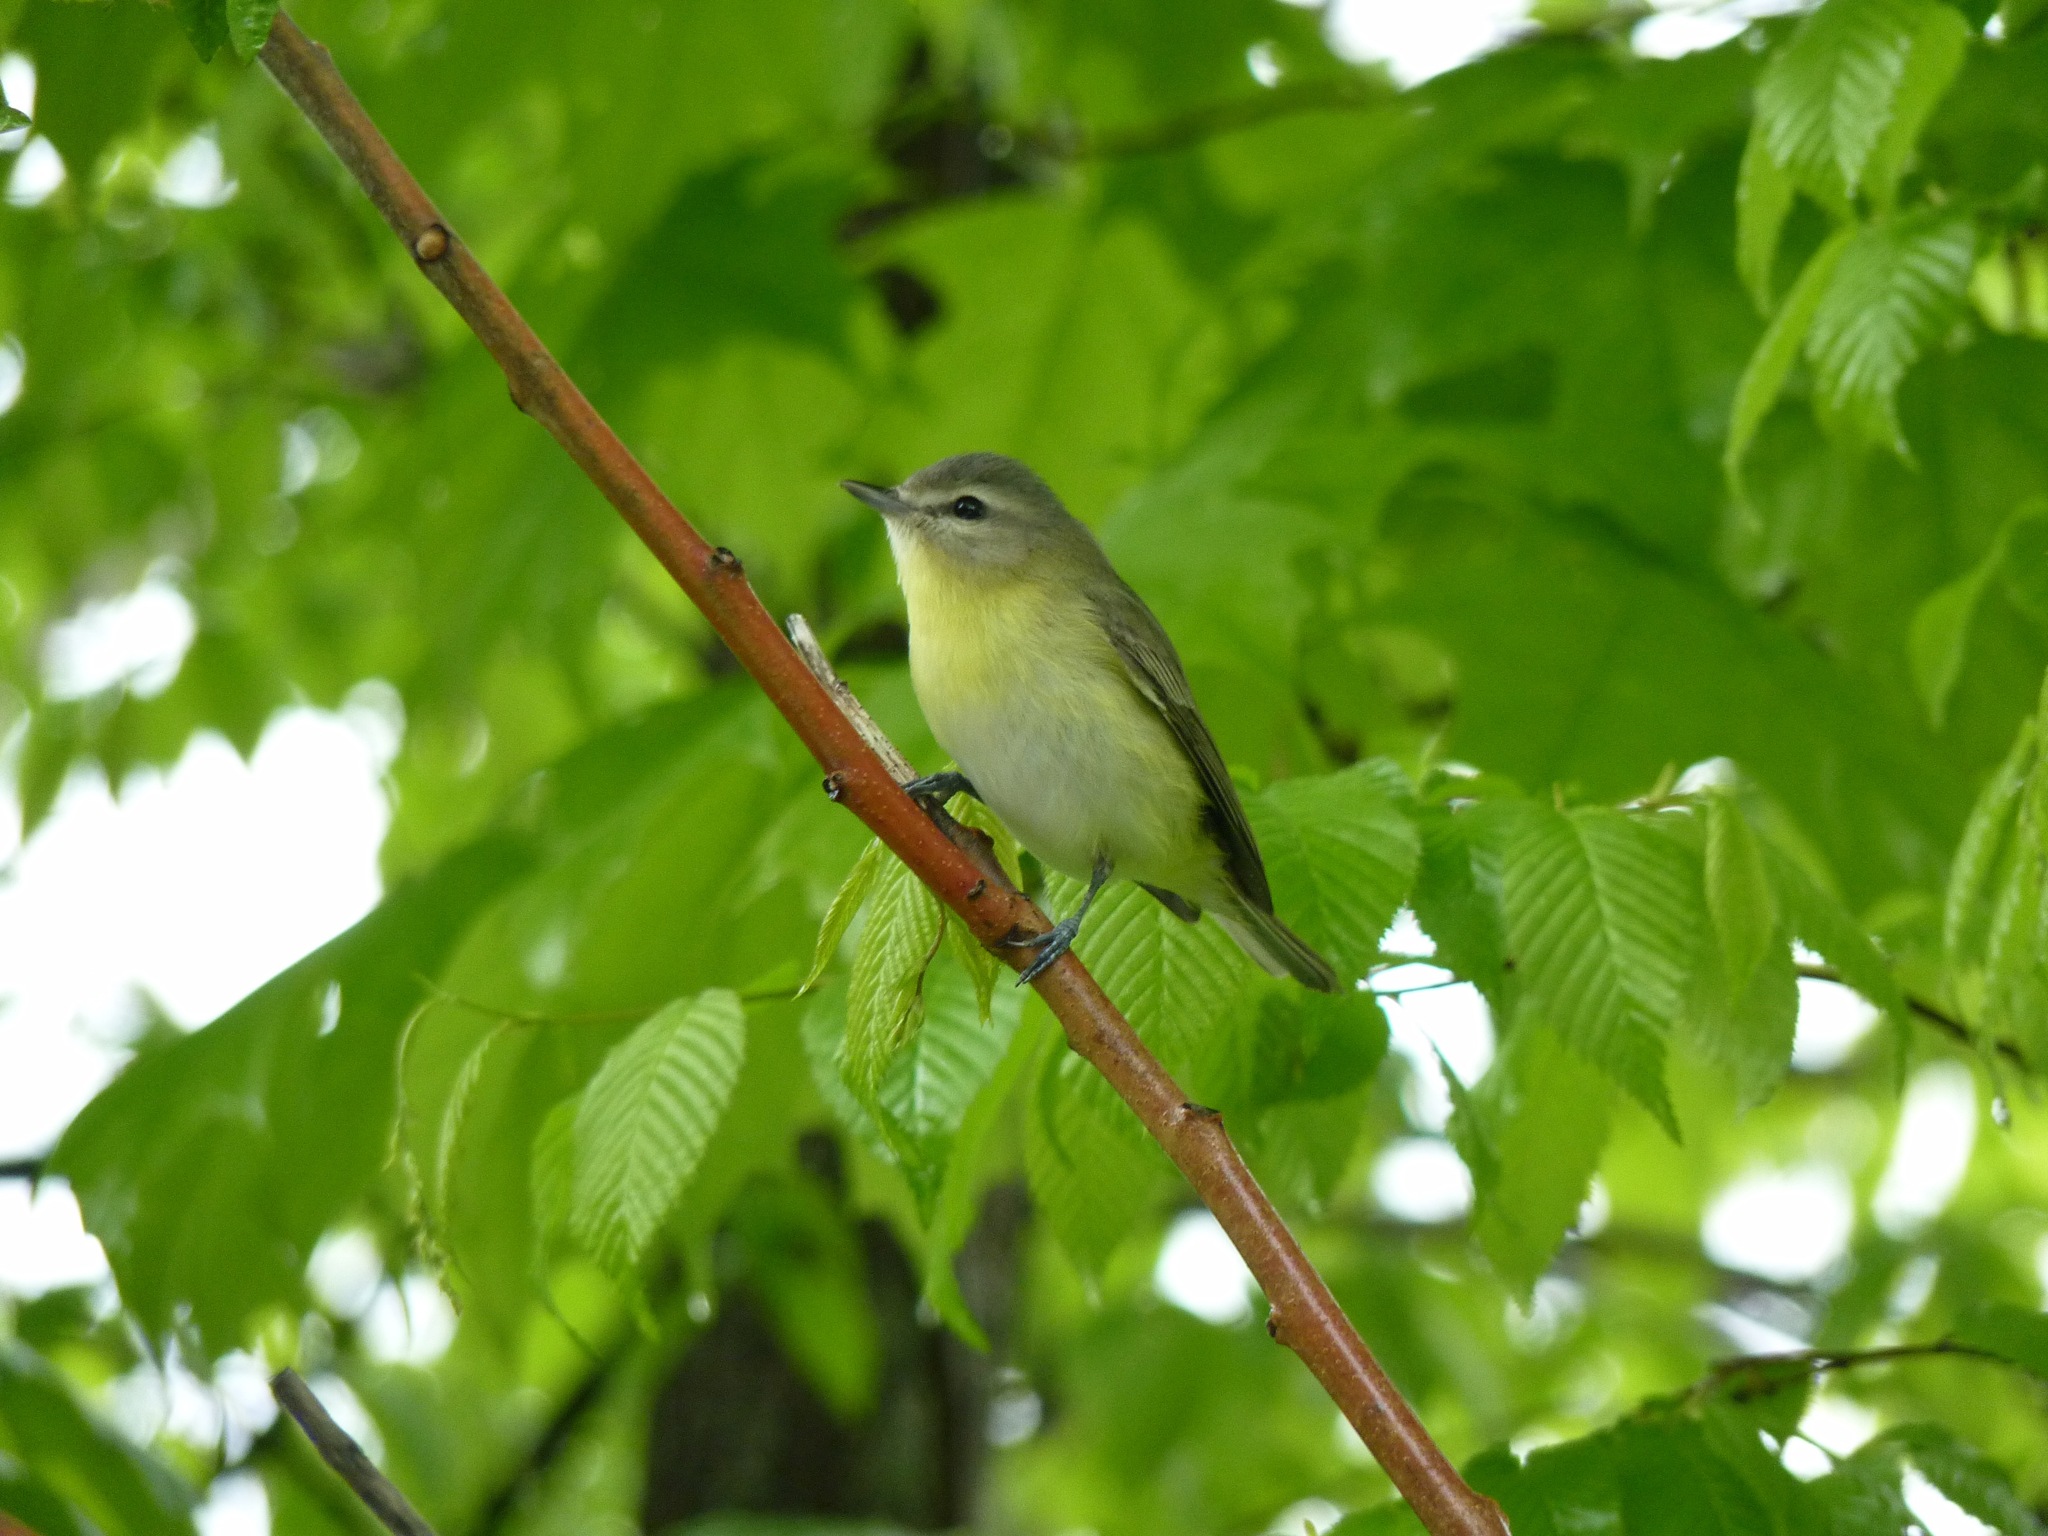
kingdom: Animalia
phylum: Chordata
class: Aves
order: Passeriformes
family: Vireonidae
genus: Vireo
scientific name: Vireo philadelphicus
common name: Philadelphia vireo
